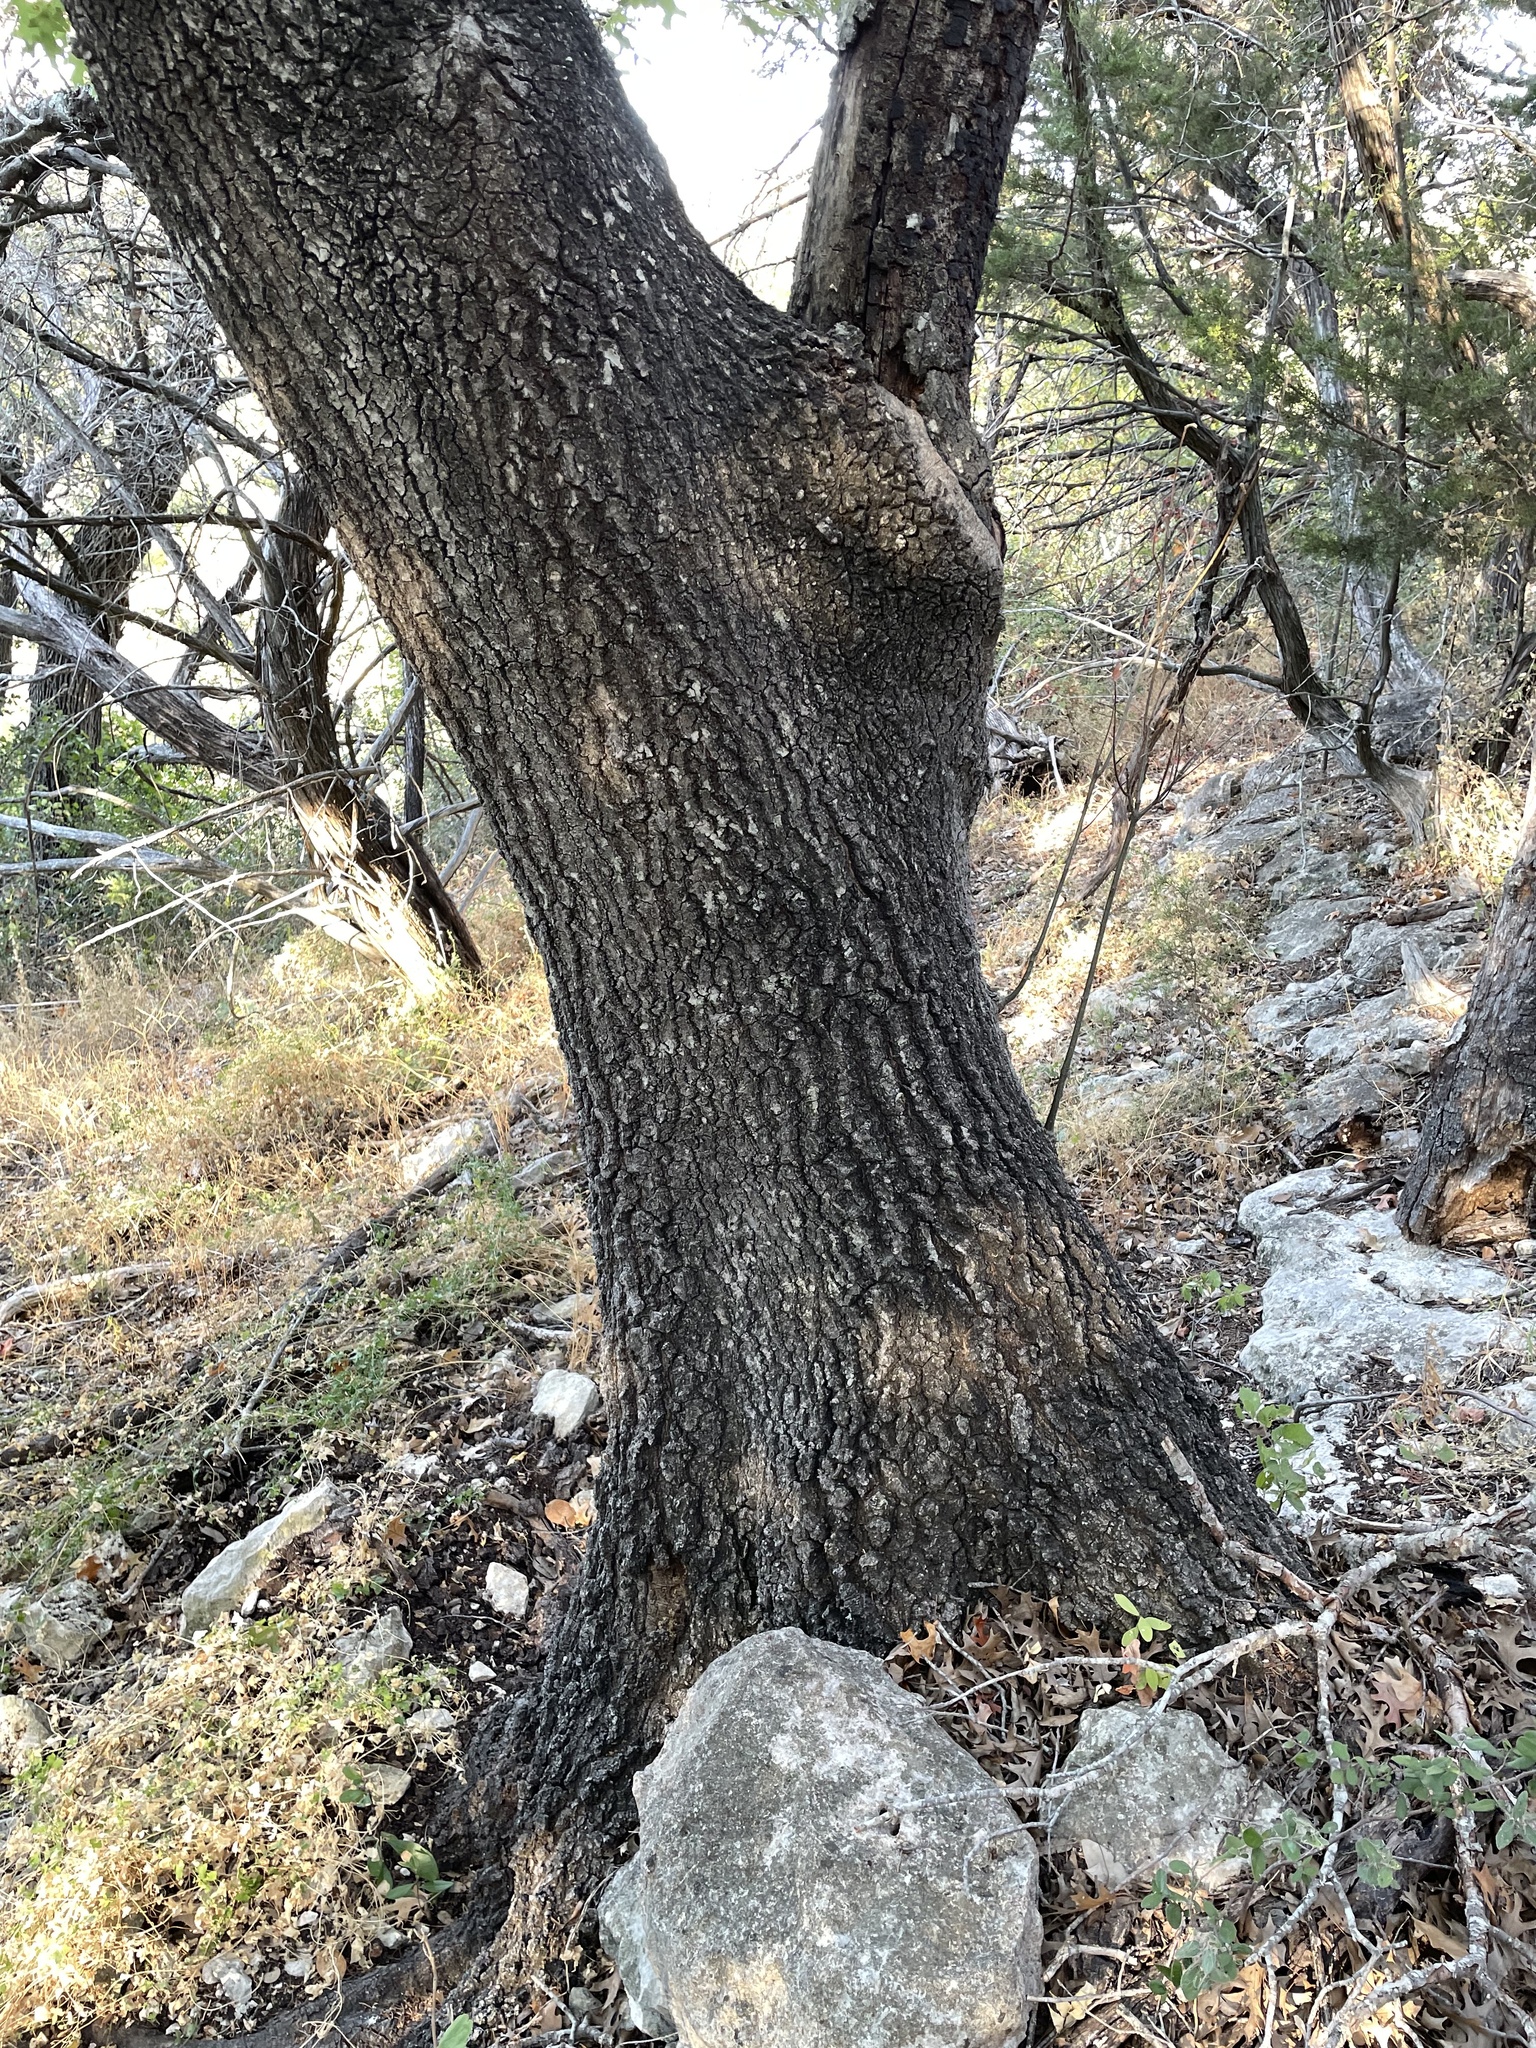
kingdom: Plantae
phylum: Tracheophyta
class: Magnoliopsida
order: Fagales
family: Fagaceae
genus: Quercus
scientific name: Quercus buckleyi
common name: Buckley oak
